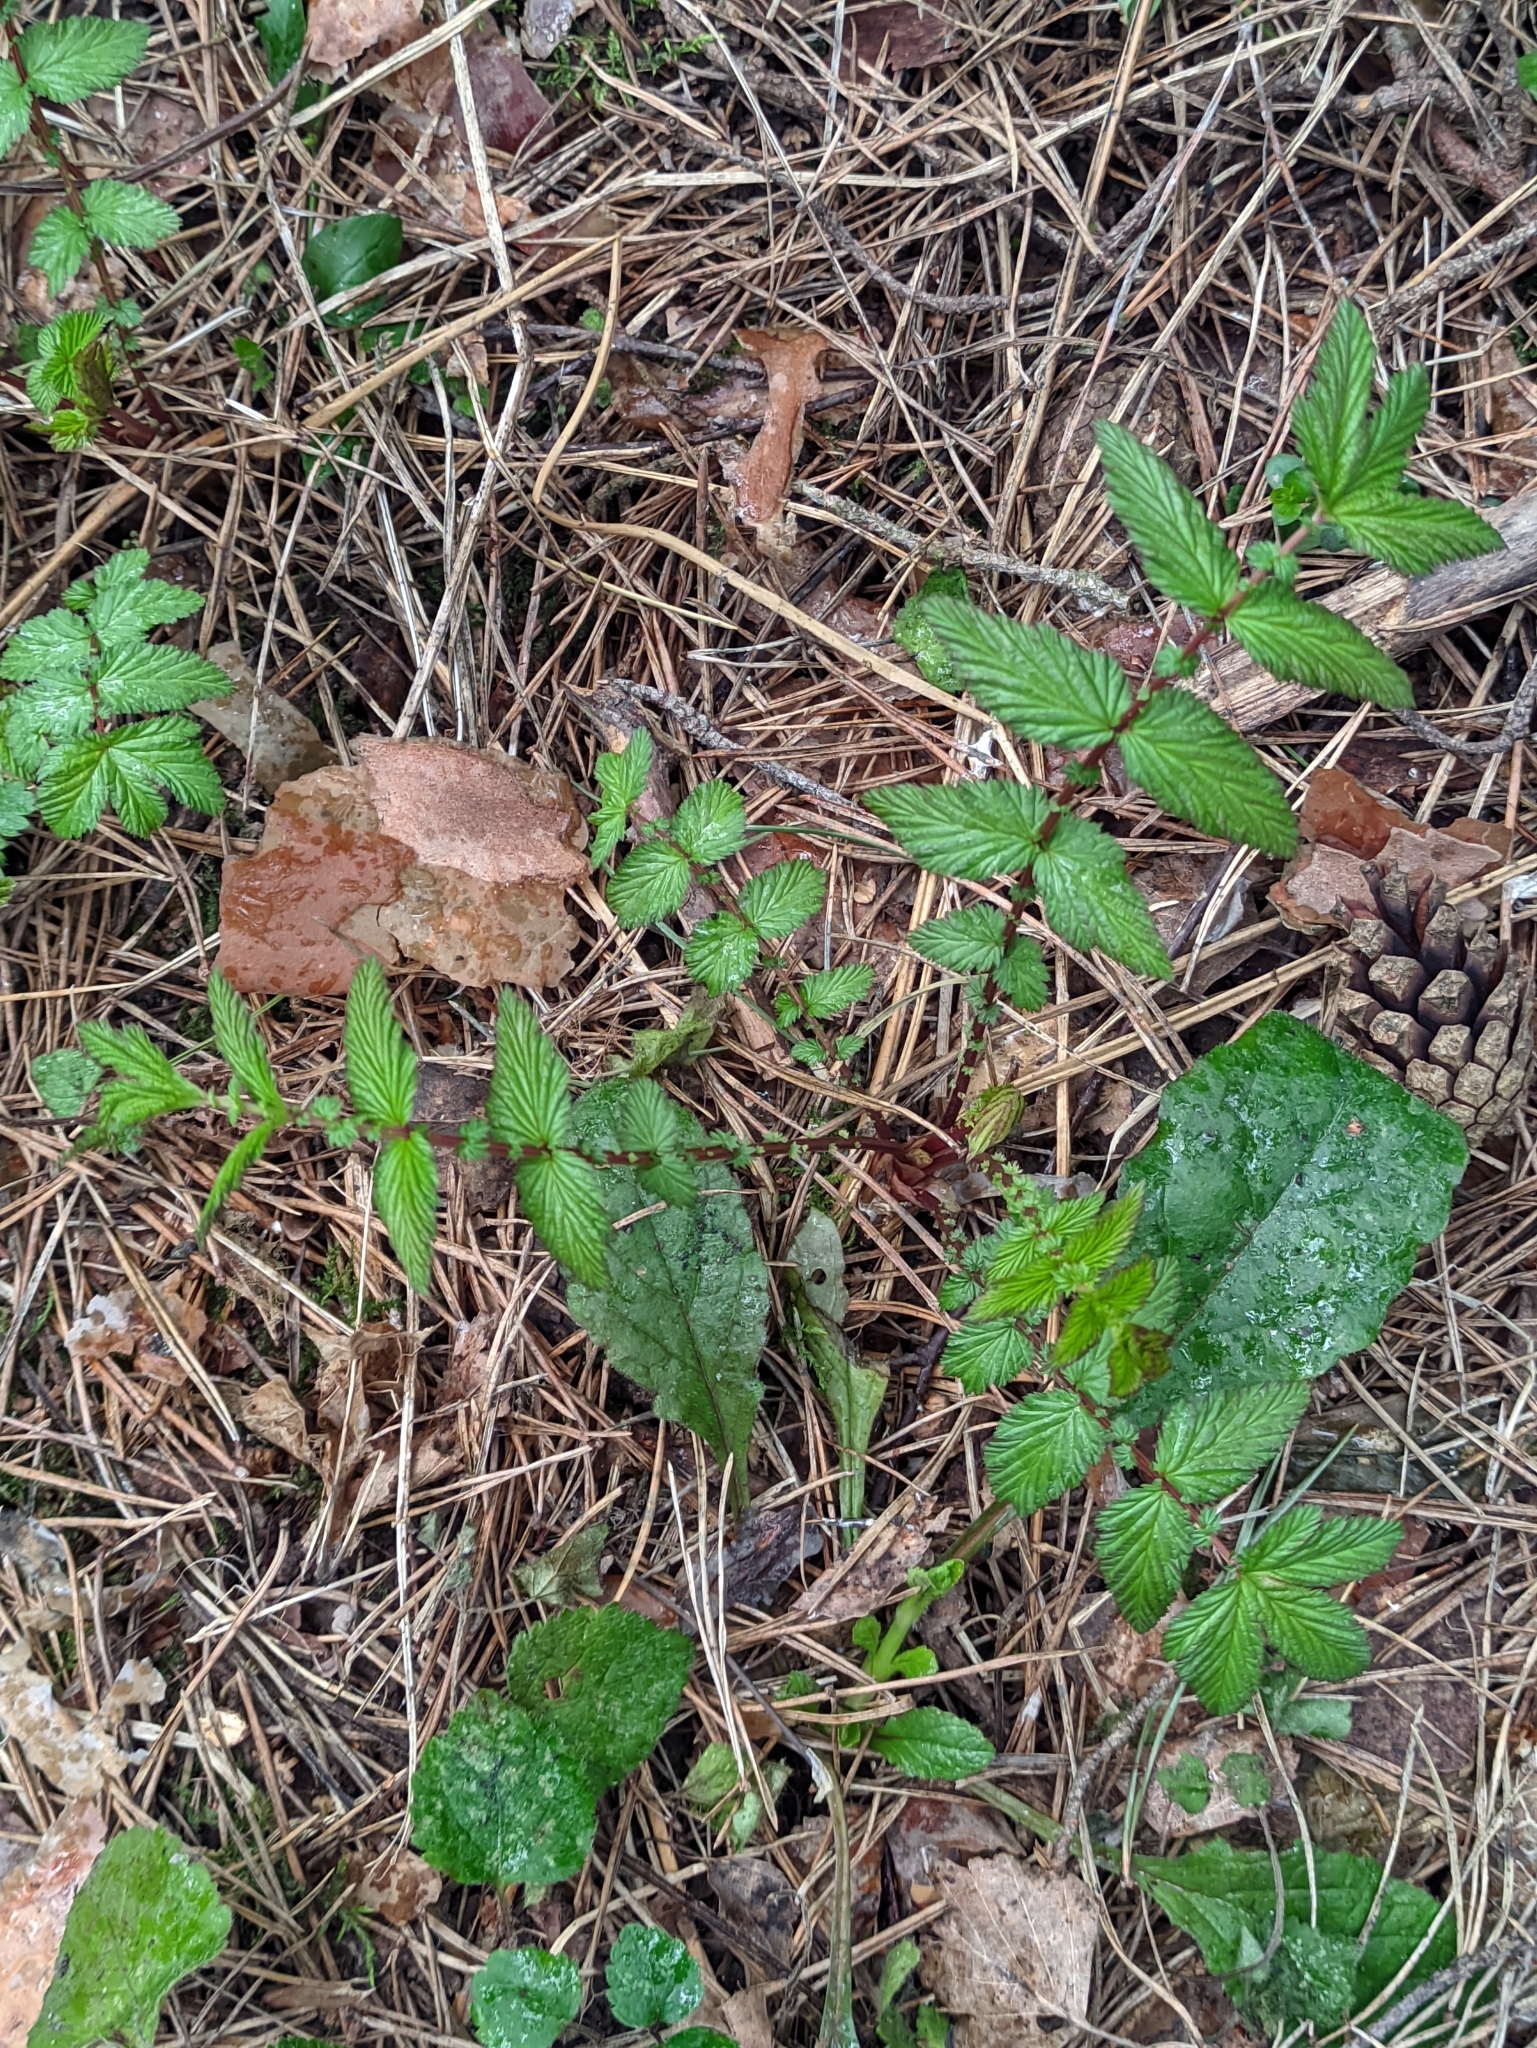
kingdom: Plantae
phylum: Tracheophyta
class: Magnoliopsida
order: Rosales
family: Rosaceae
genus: Filipendula
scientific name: Filipendula ulmaria
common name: Meadowsweet
